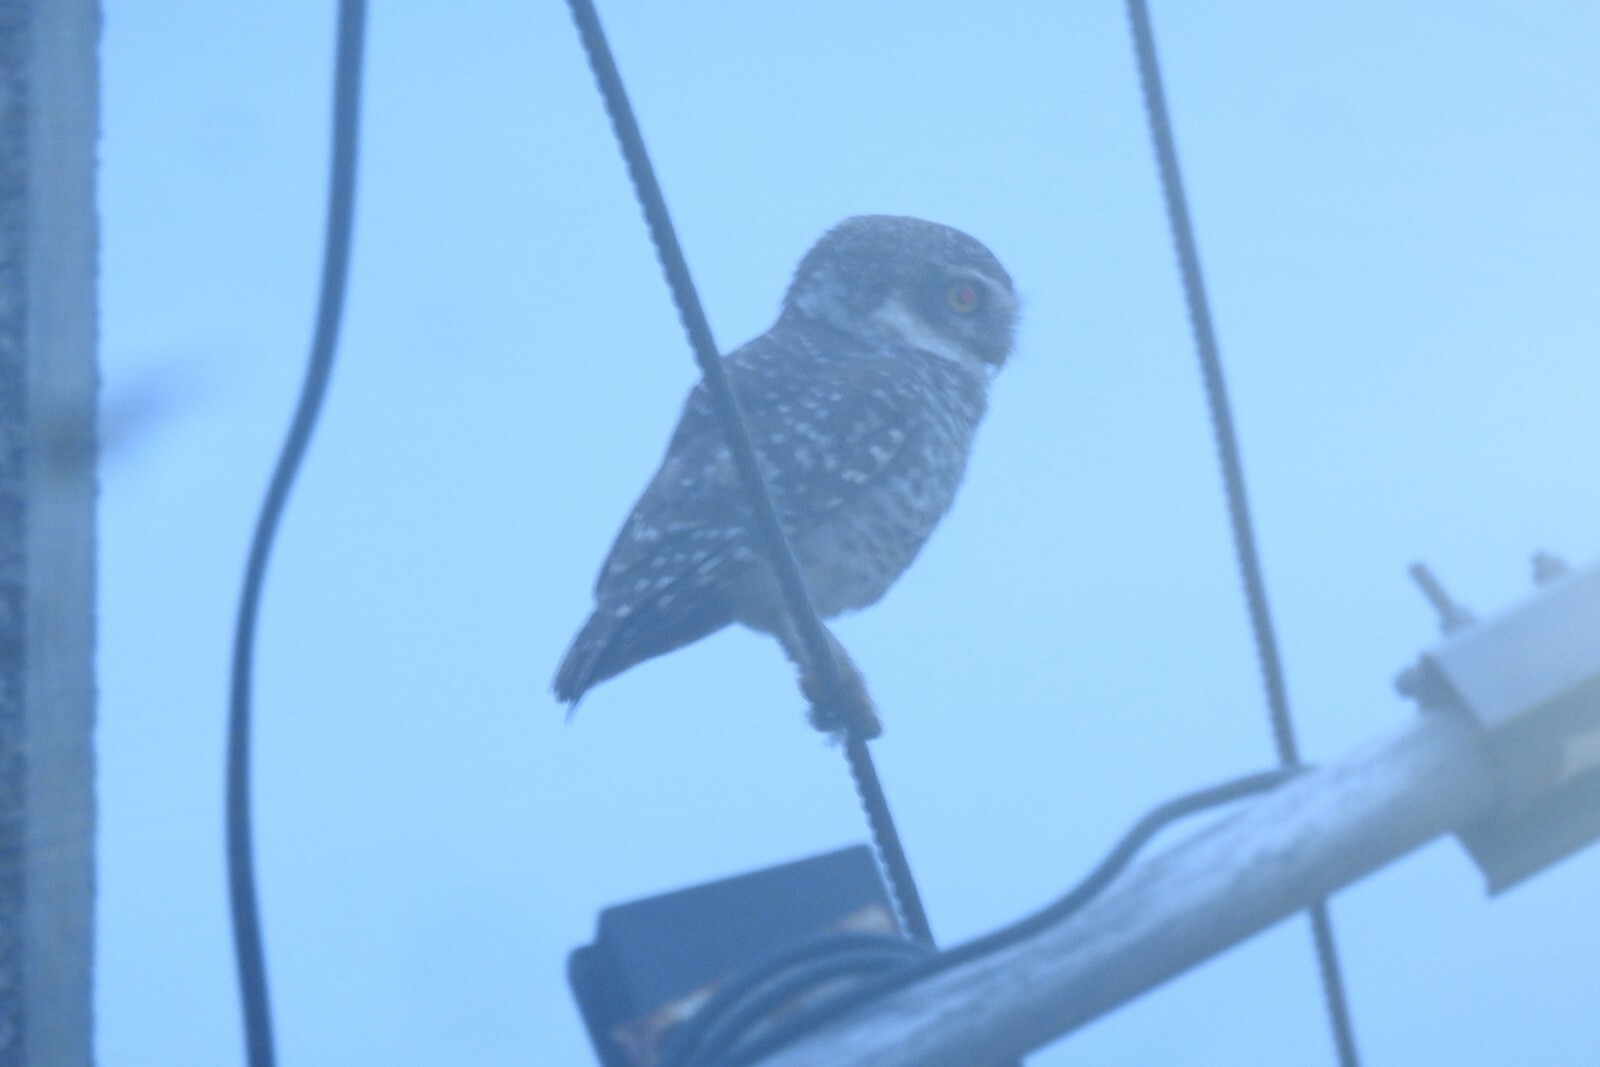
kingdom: Animalia
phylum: Chordata
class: Aves
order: Strigiformes
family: Strigidae
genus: Athene
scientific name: Athene brama
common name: Spotted owlet
